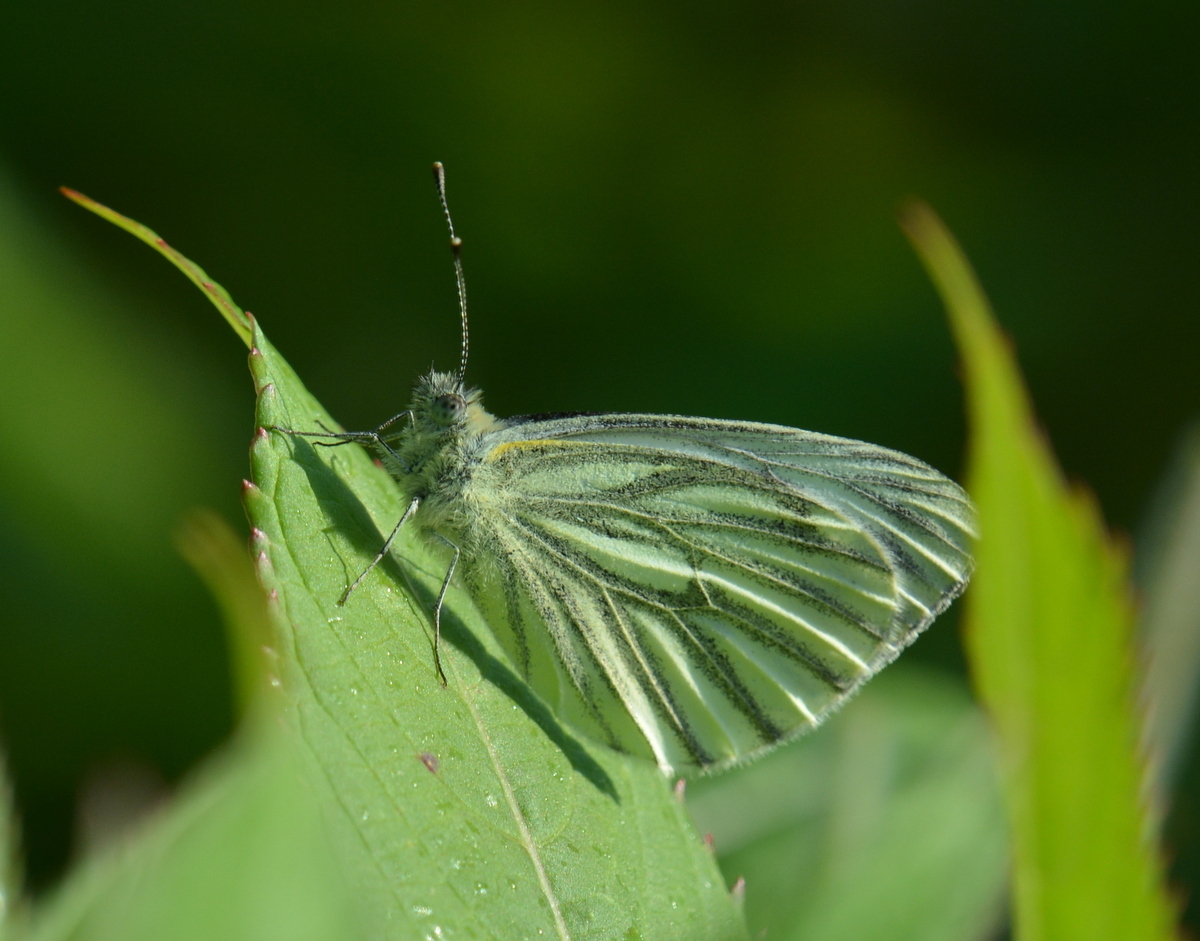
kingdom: Animalia
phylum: Arthropoda
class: Insecta
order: Lepidoptera
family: Pieridae
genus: Pieris
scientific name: Pieris napi
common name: Green-veined white
